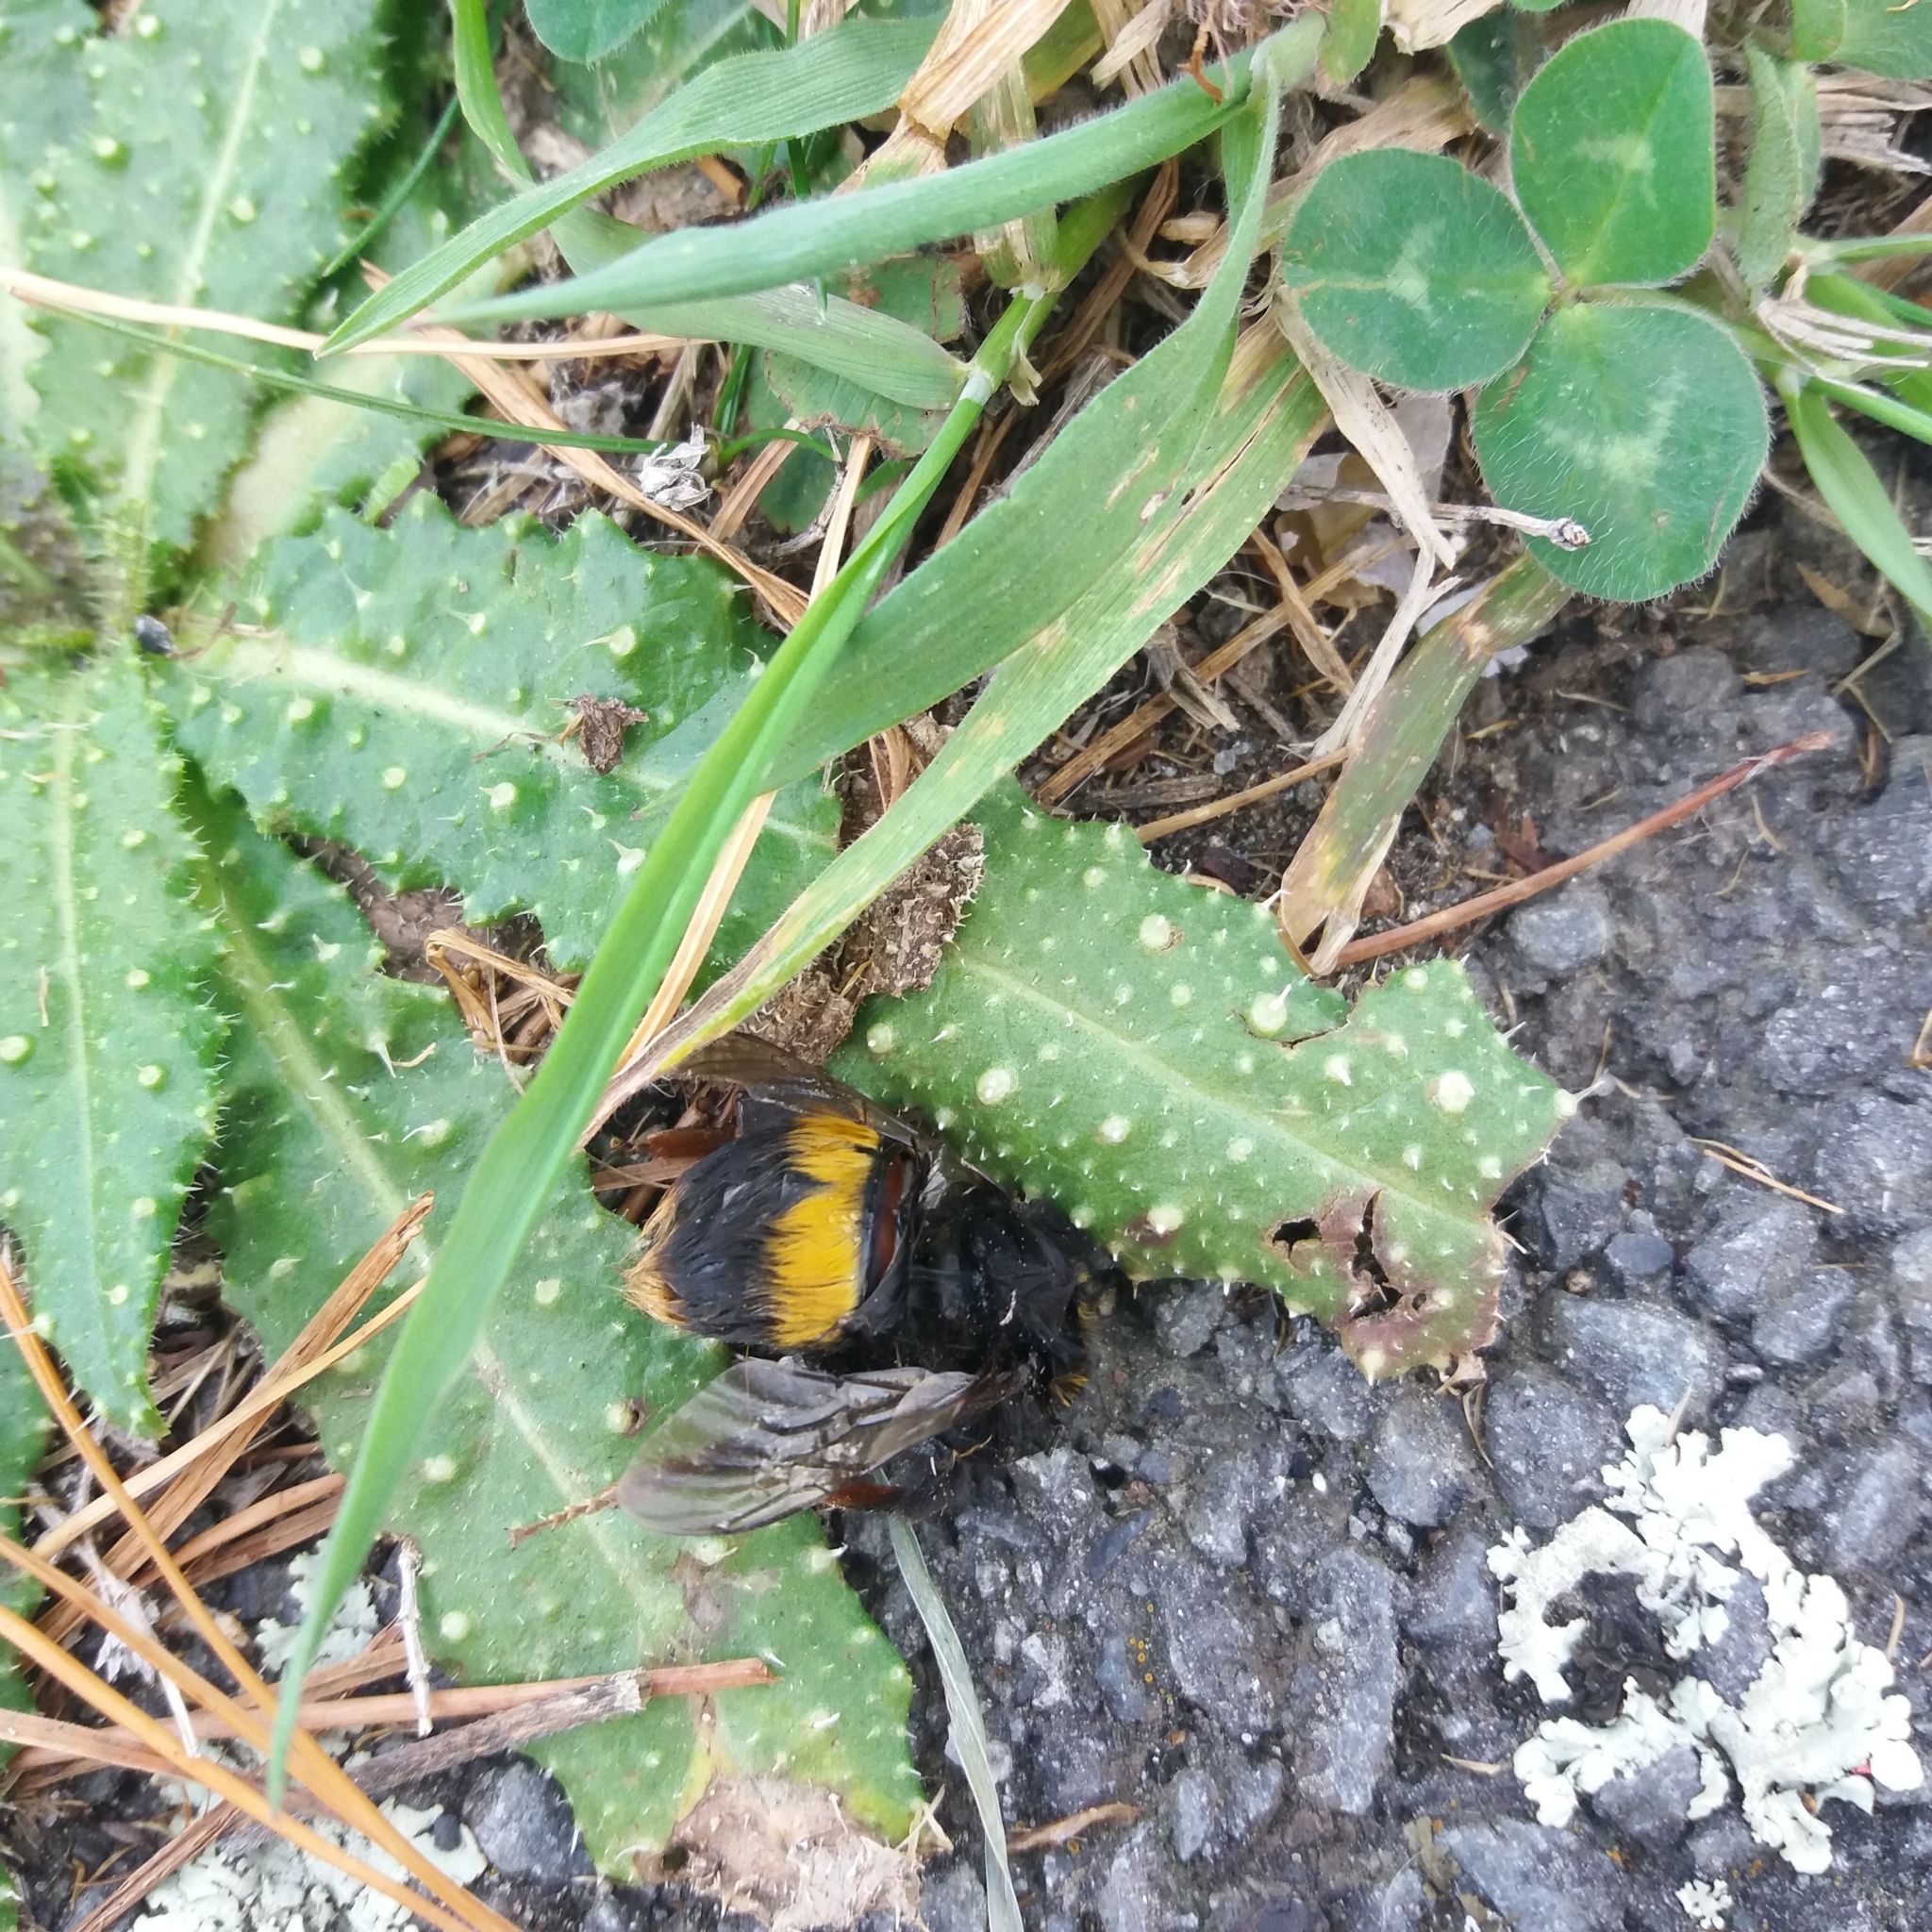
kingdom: Animalia
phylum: Arthropoda
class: Insecta
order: Hymenoptera
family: Apidae
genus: Bombus
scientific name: Bombus terrestris
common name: Buff-tailed bumblebee
